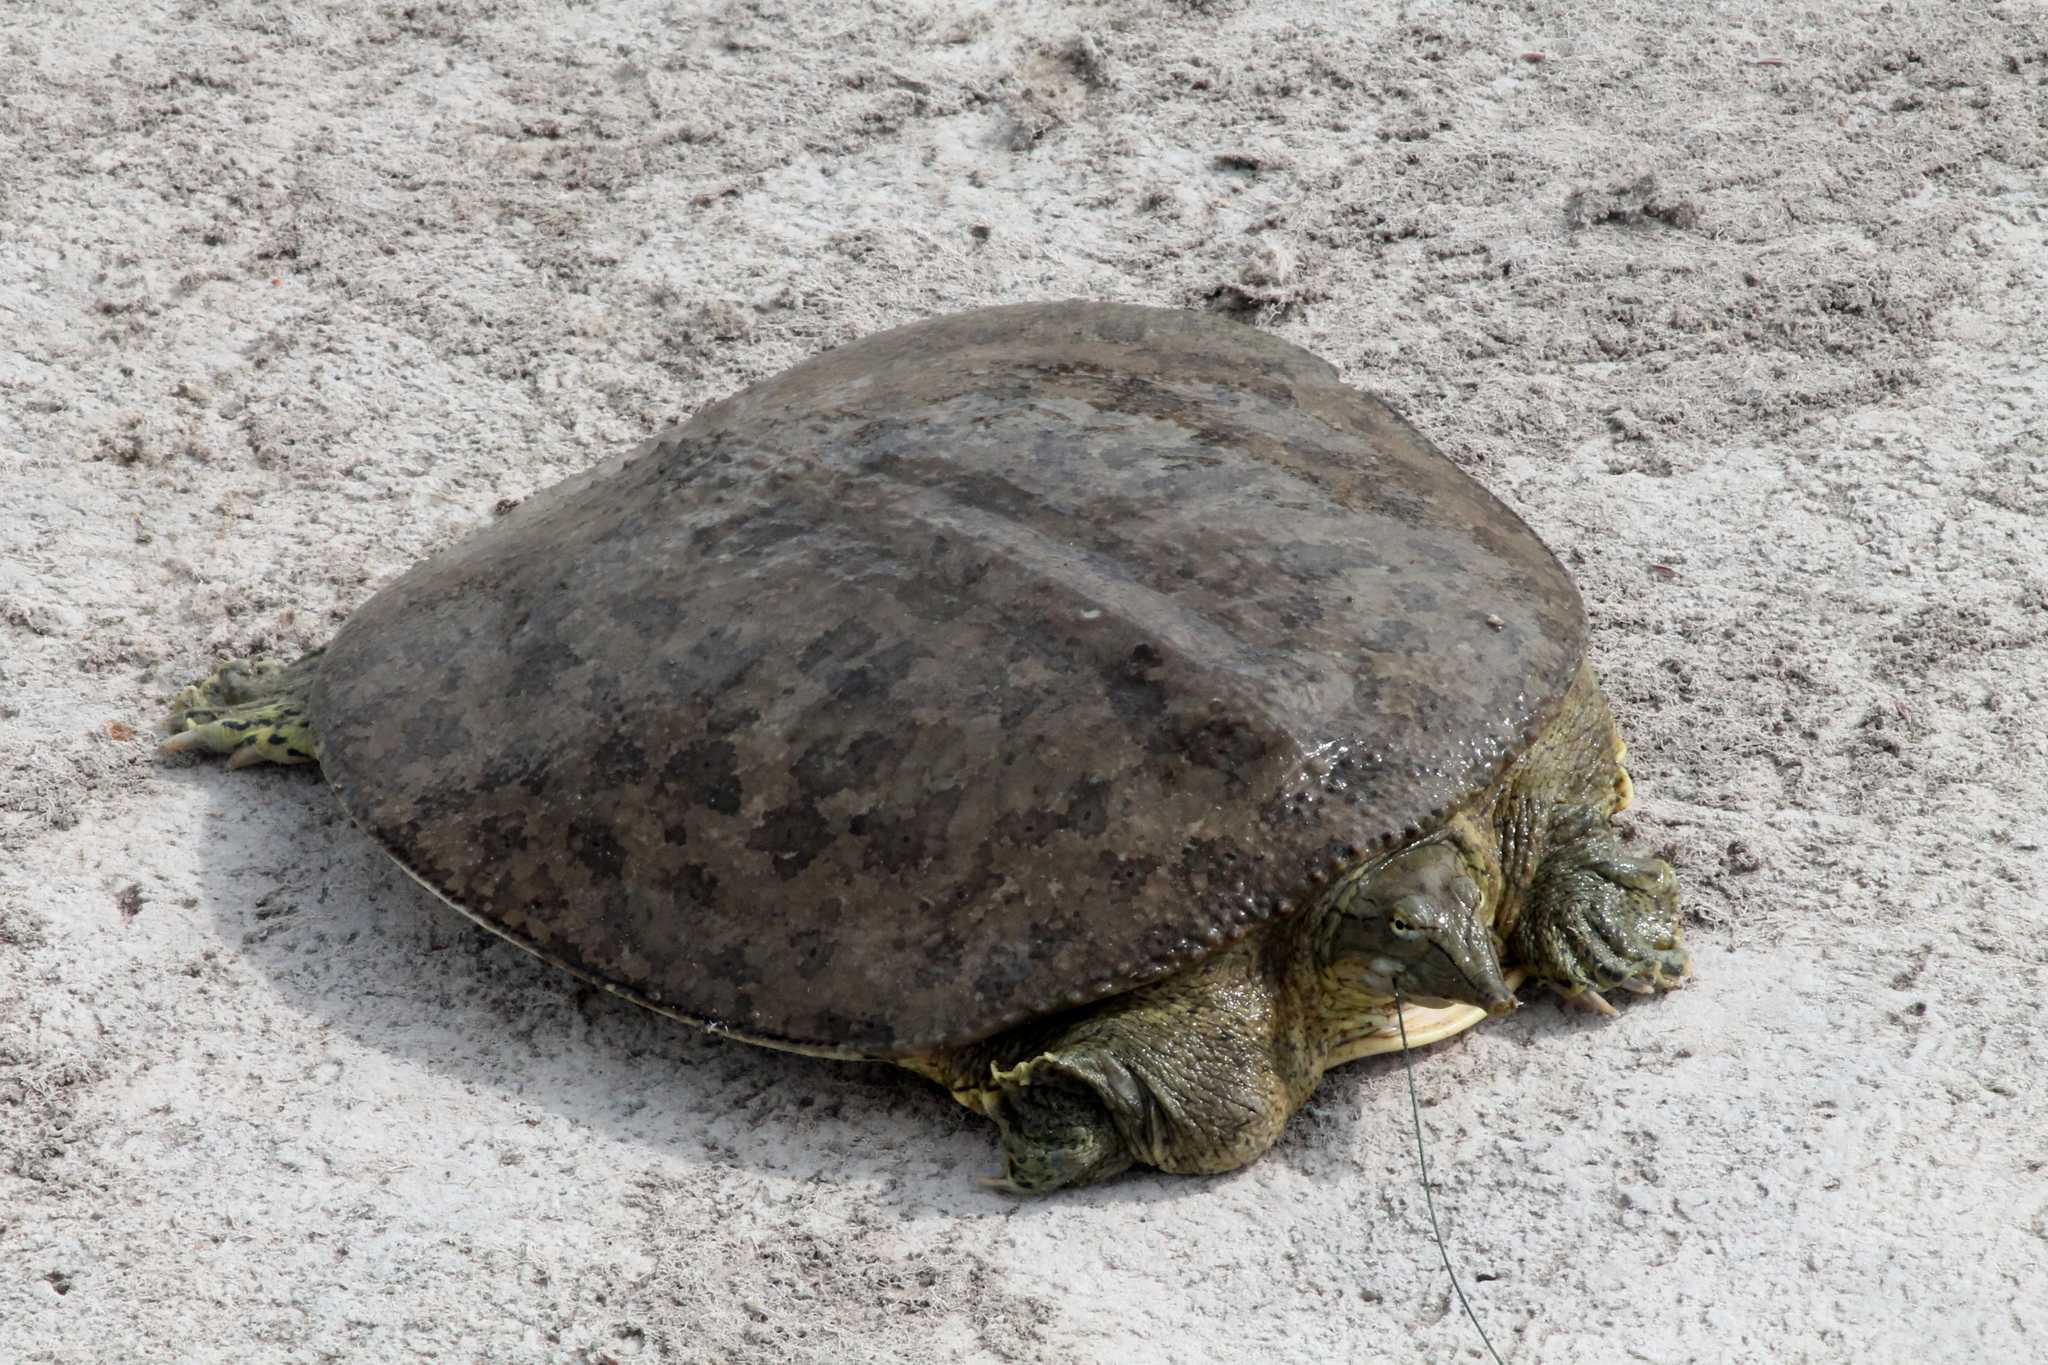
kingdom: Animalia
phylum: Chordata
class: Testudines
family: Trionychidae
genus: Apalone
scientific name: Apalone spinifera
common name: Spiny softshell turtle
